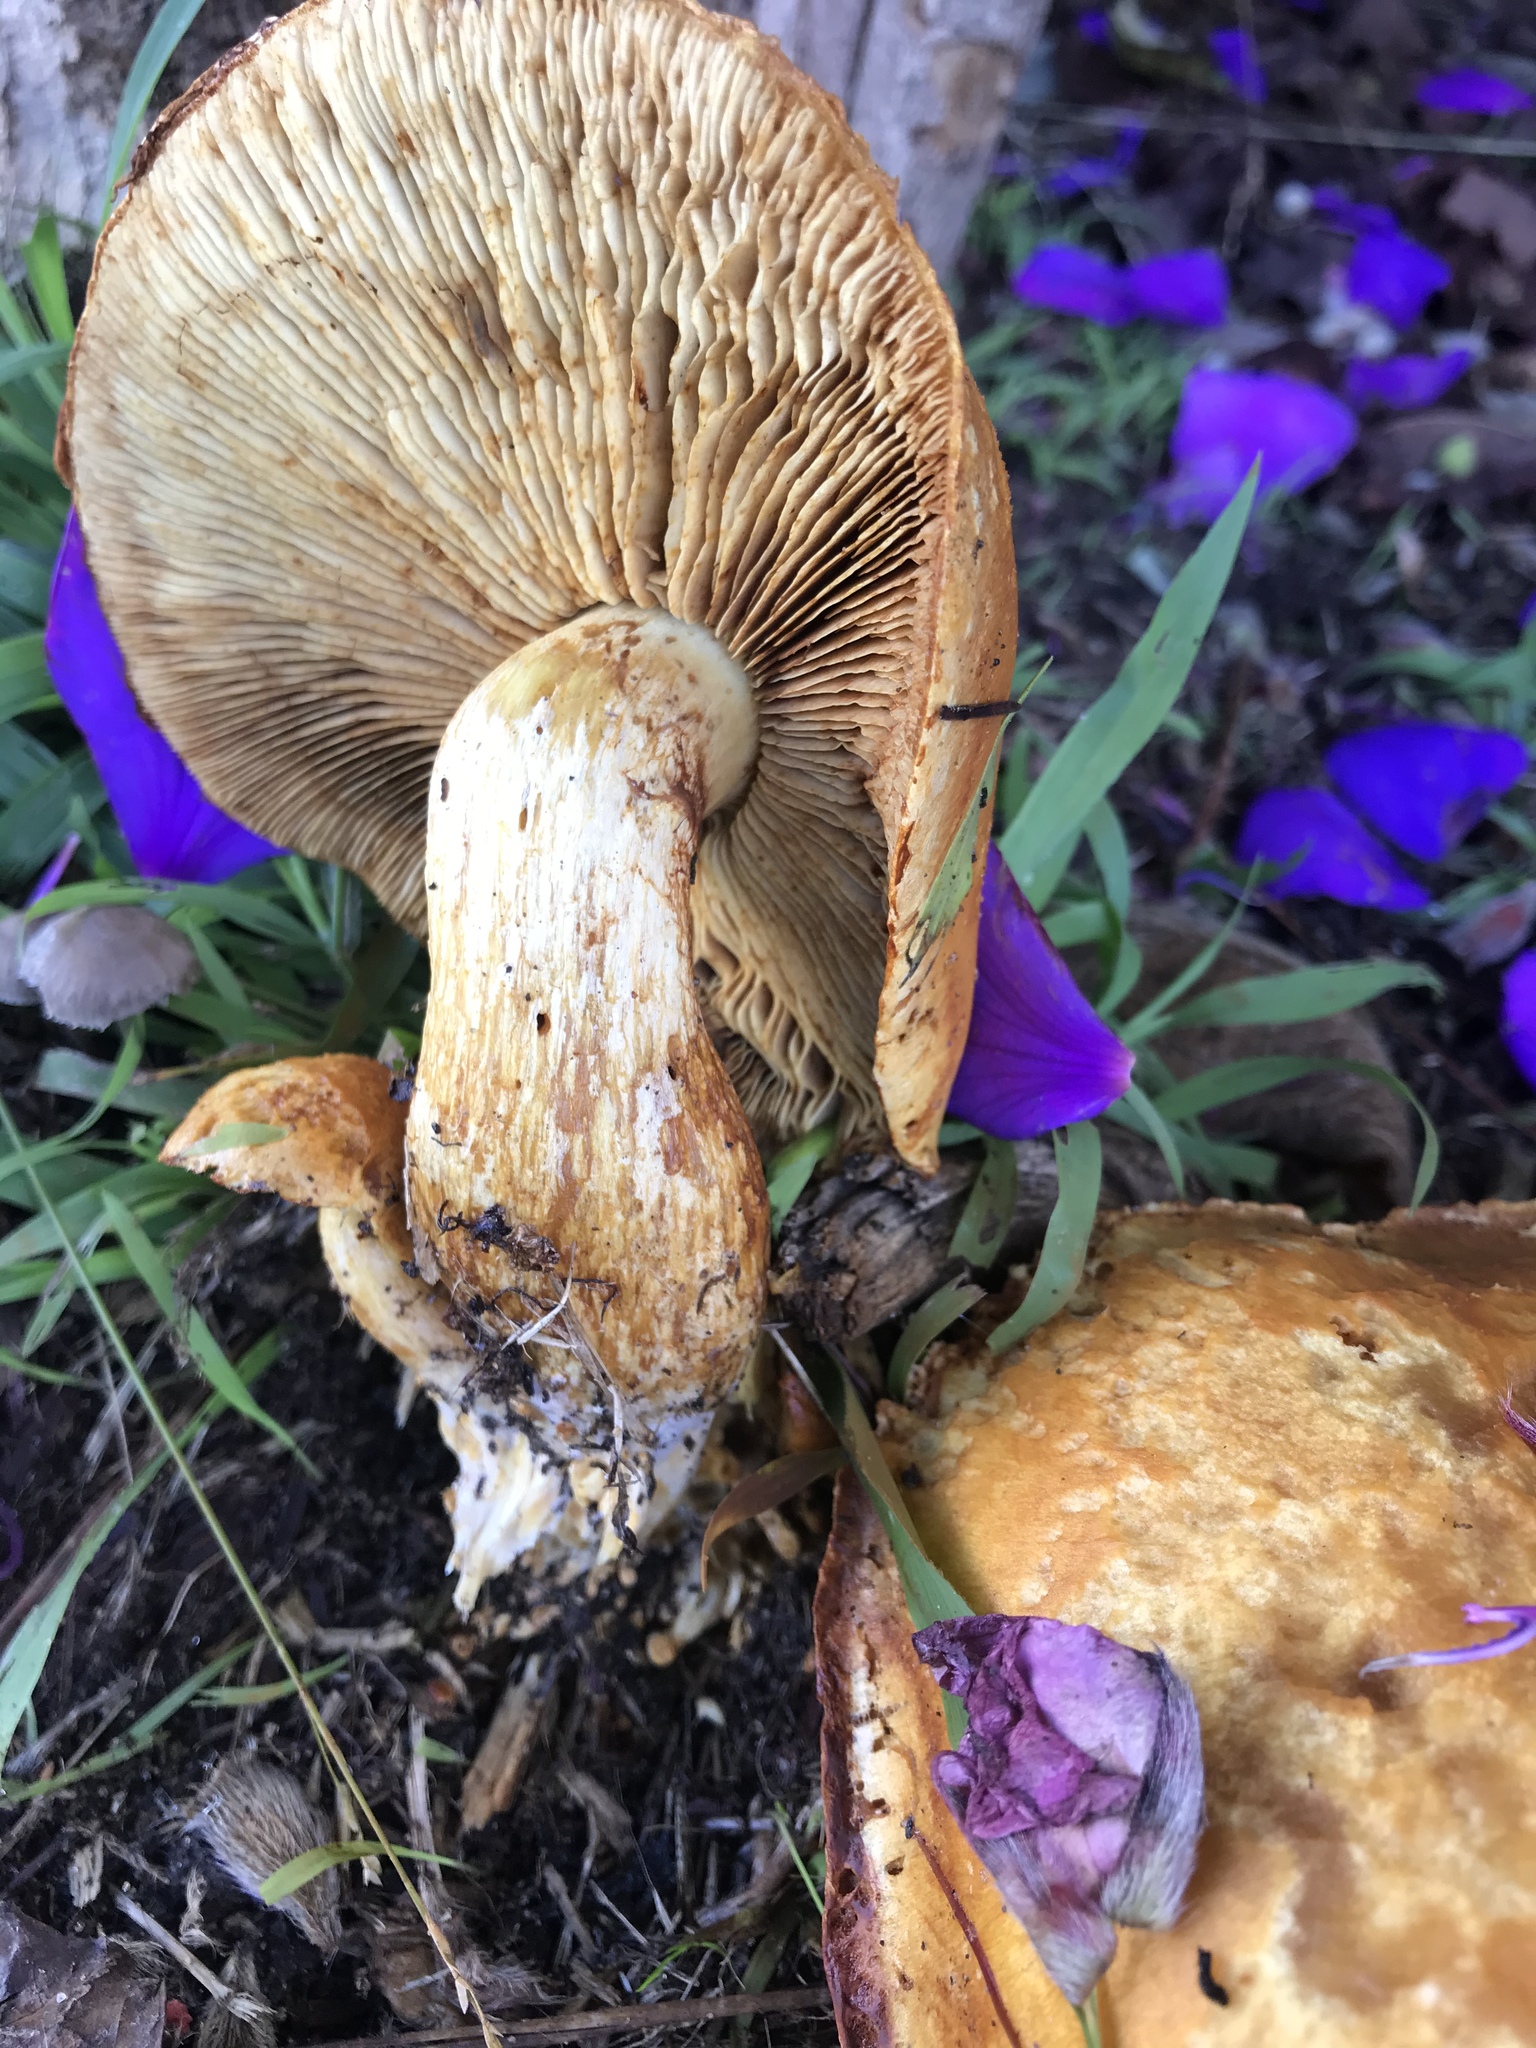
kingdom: Fungi
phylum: Basidiomycota
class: Agaricomycetes
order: Agaricales
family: Hymenogastraceae
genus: Gymnopilus
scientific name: Gymnopilus ventricosus
